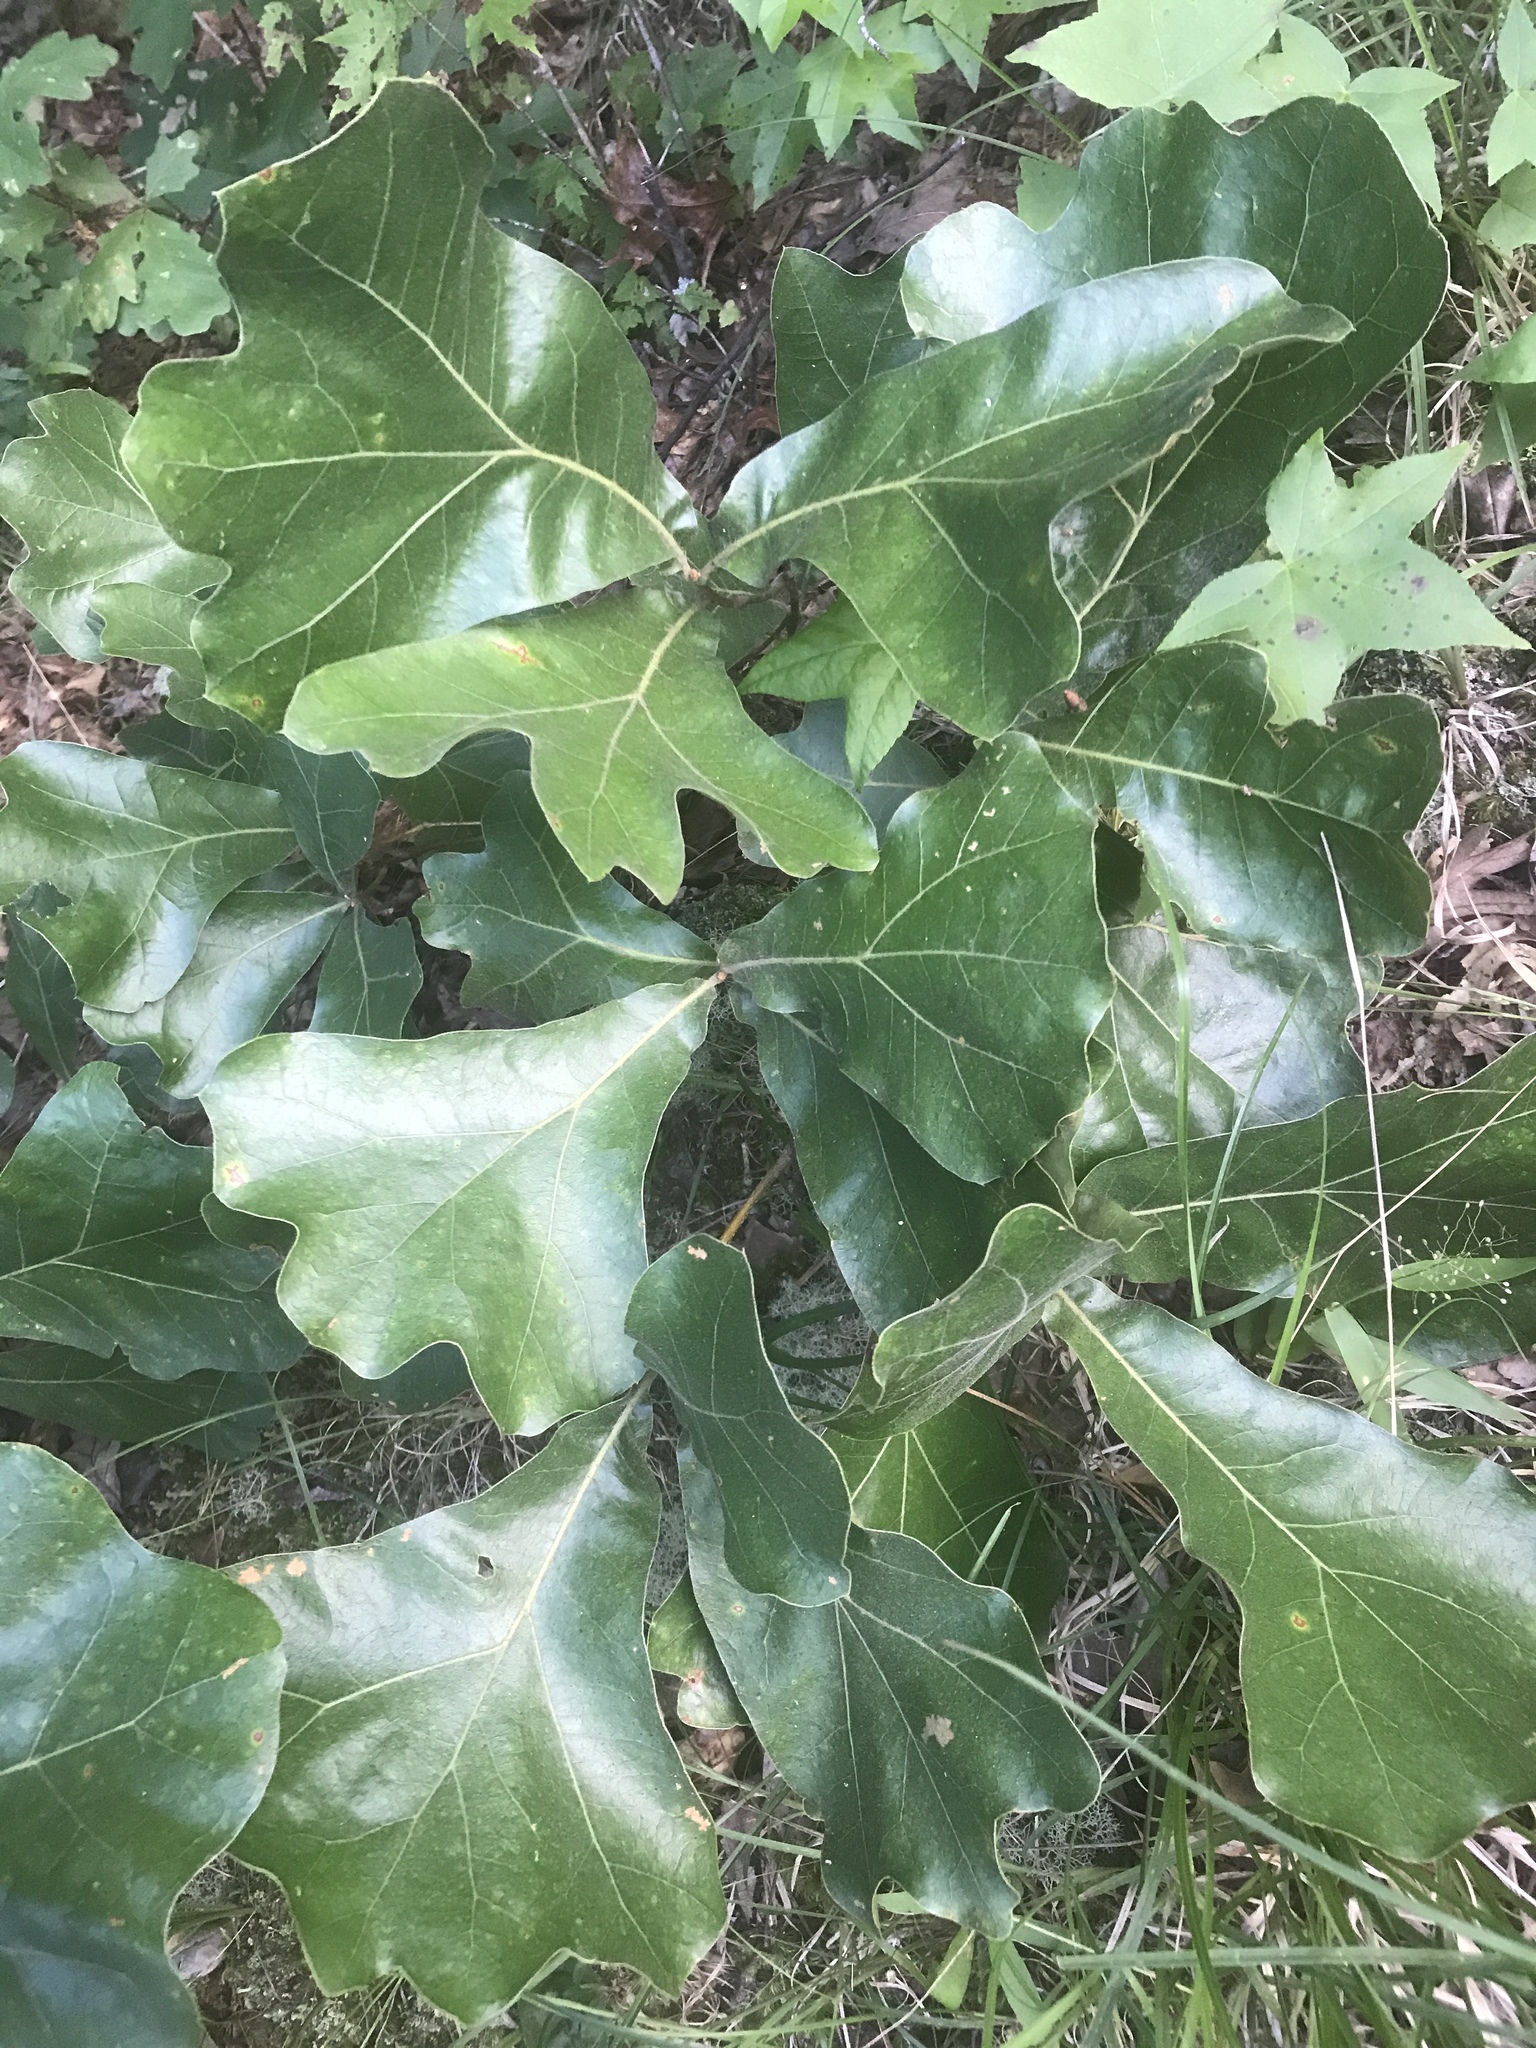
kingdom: Plantae
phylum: Tracheophyta
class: Magnoliopsida
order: Fagales
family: Fagaceae
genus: Quercus
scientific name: Quercus marilandica
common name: Blackjack oak
